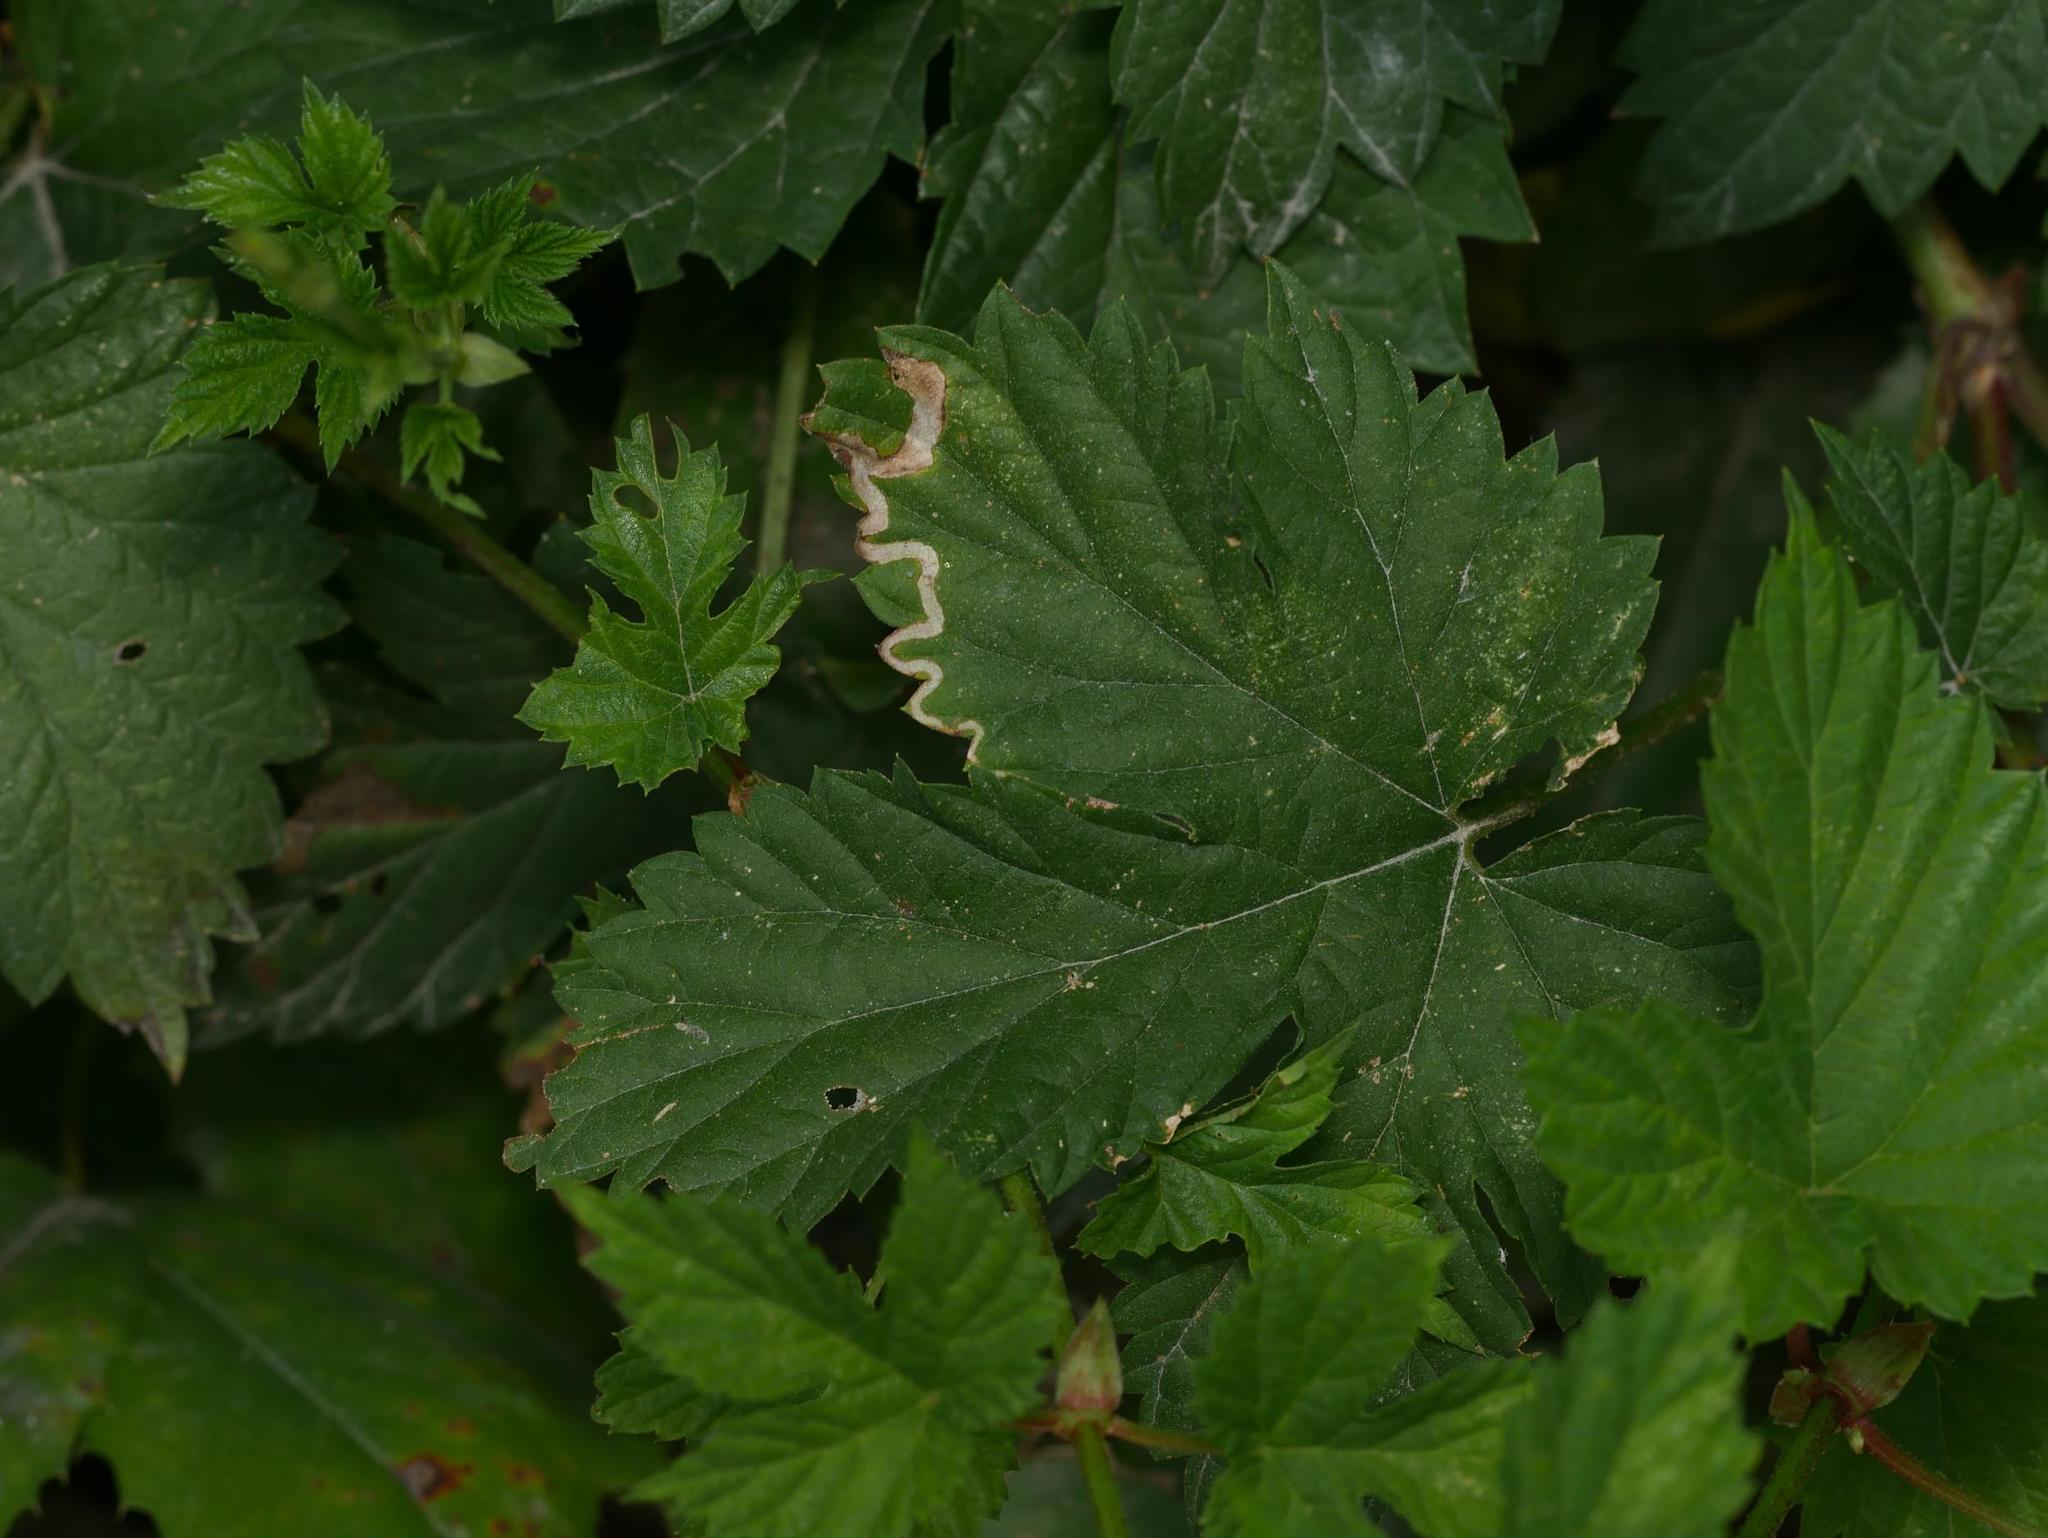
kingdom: Plantae
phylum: Tracheophyta
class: Magnoliopsida
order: Rosales
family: Cannabaceae
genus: Humulus
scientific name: Humulus lupulus
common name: Hop
